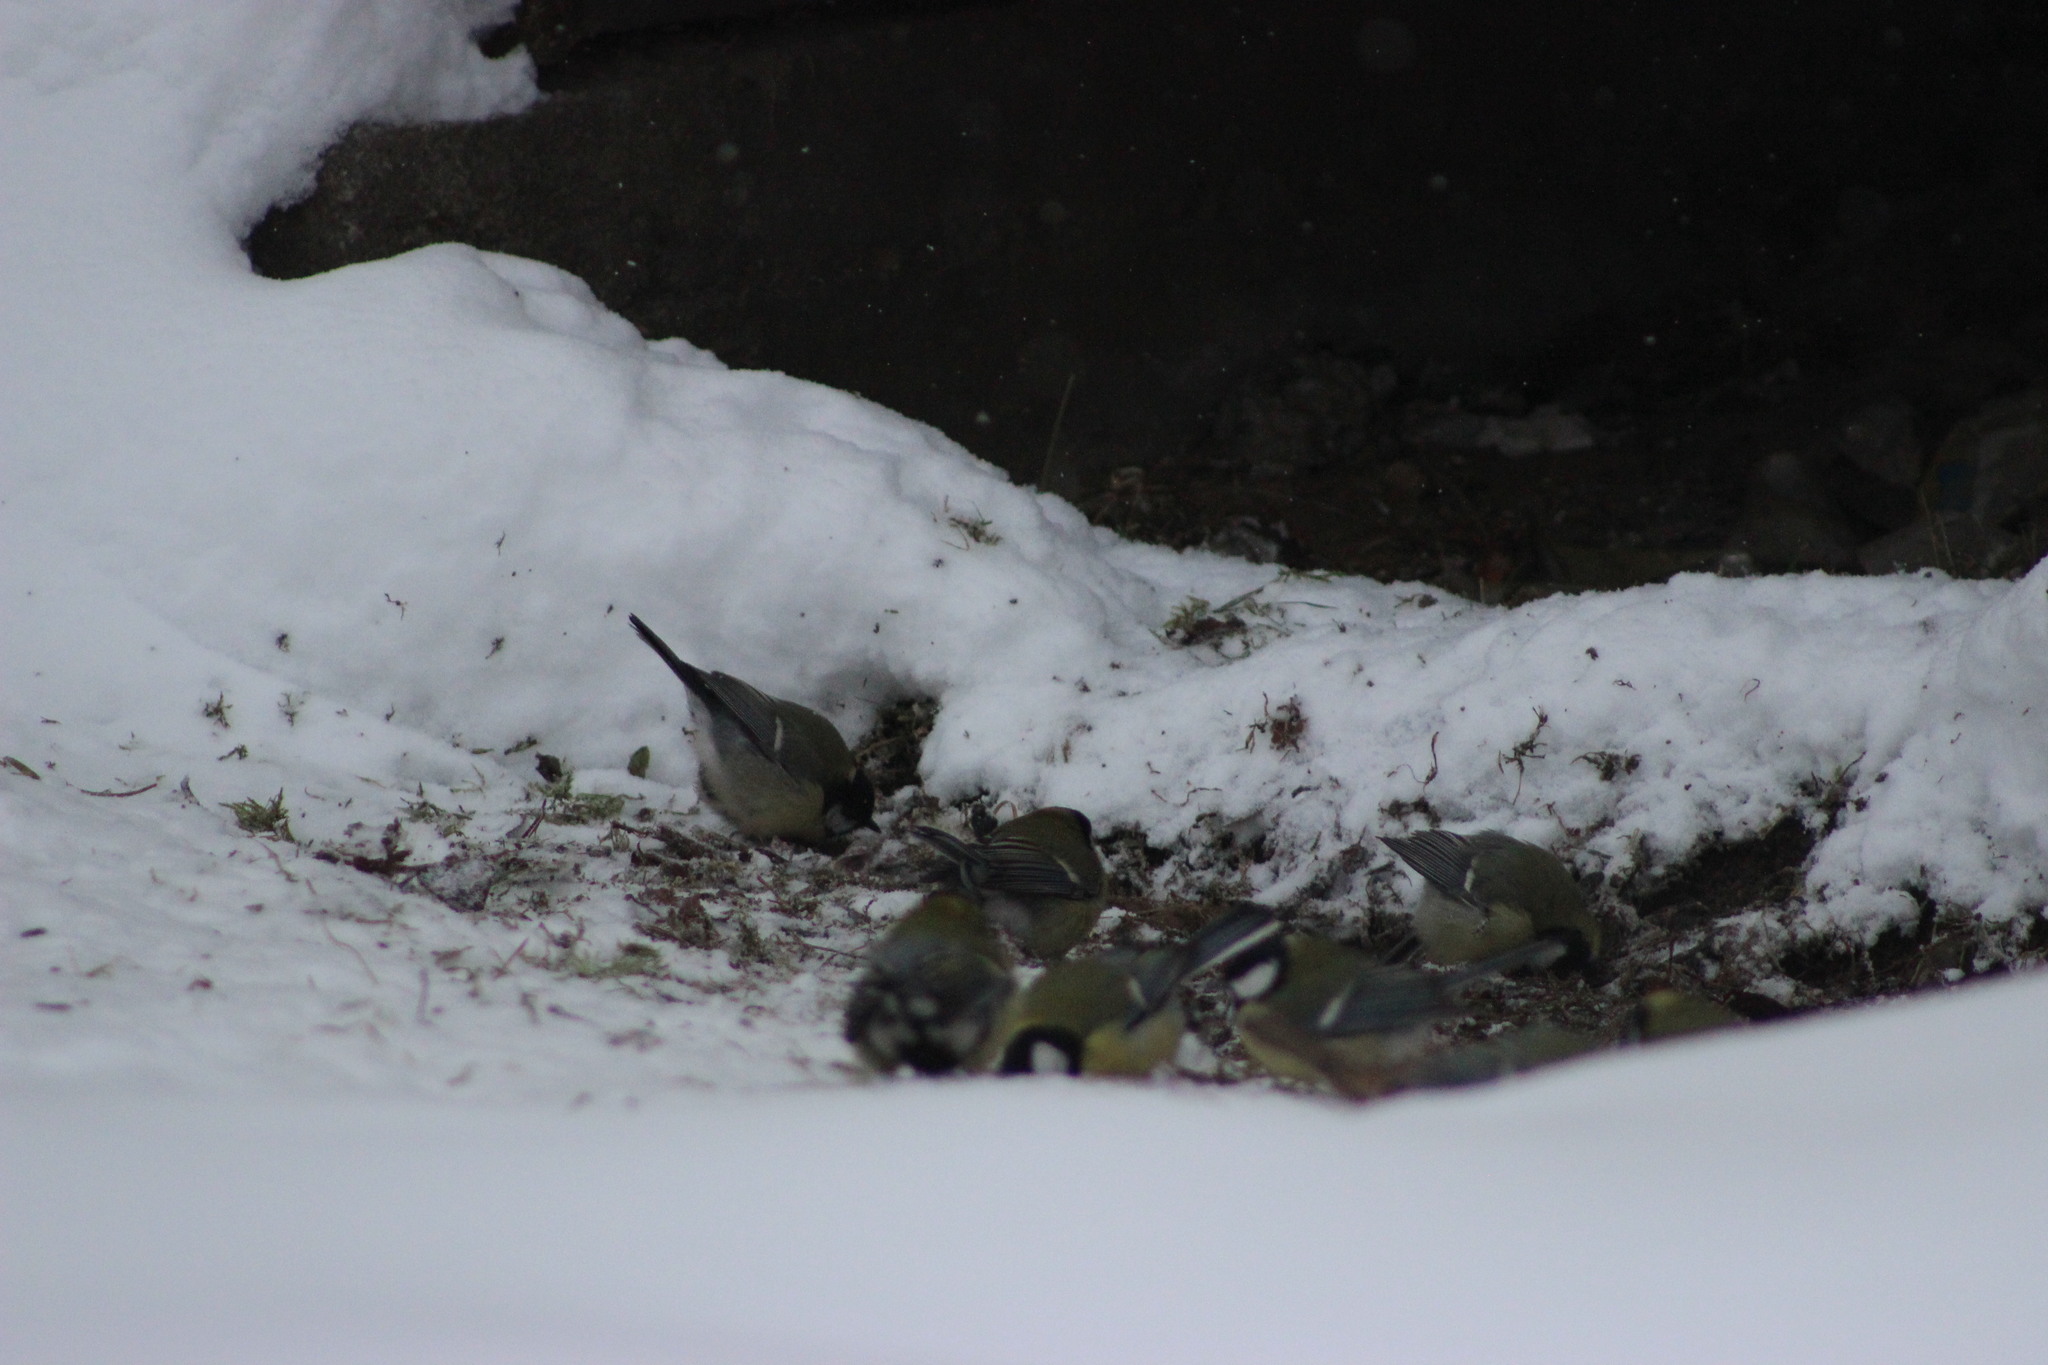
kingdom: Animalia
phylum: Chordata
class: Aves
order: Passeriformes
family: Paridae
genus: Parus
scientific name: Parus major
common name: Great tit
